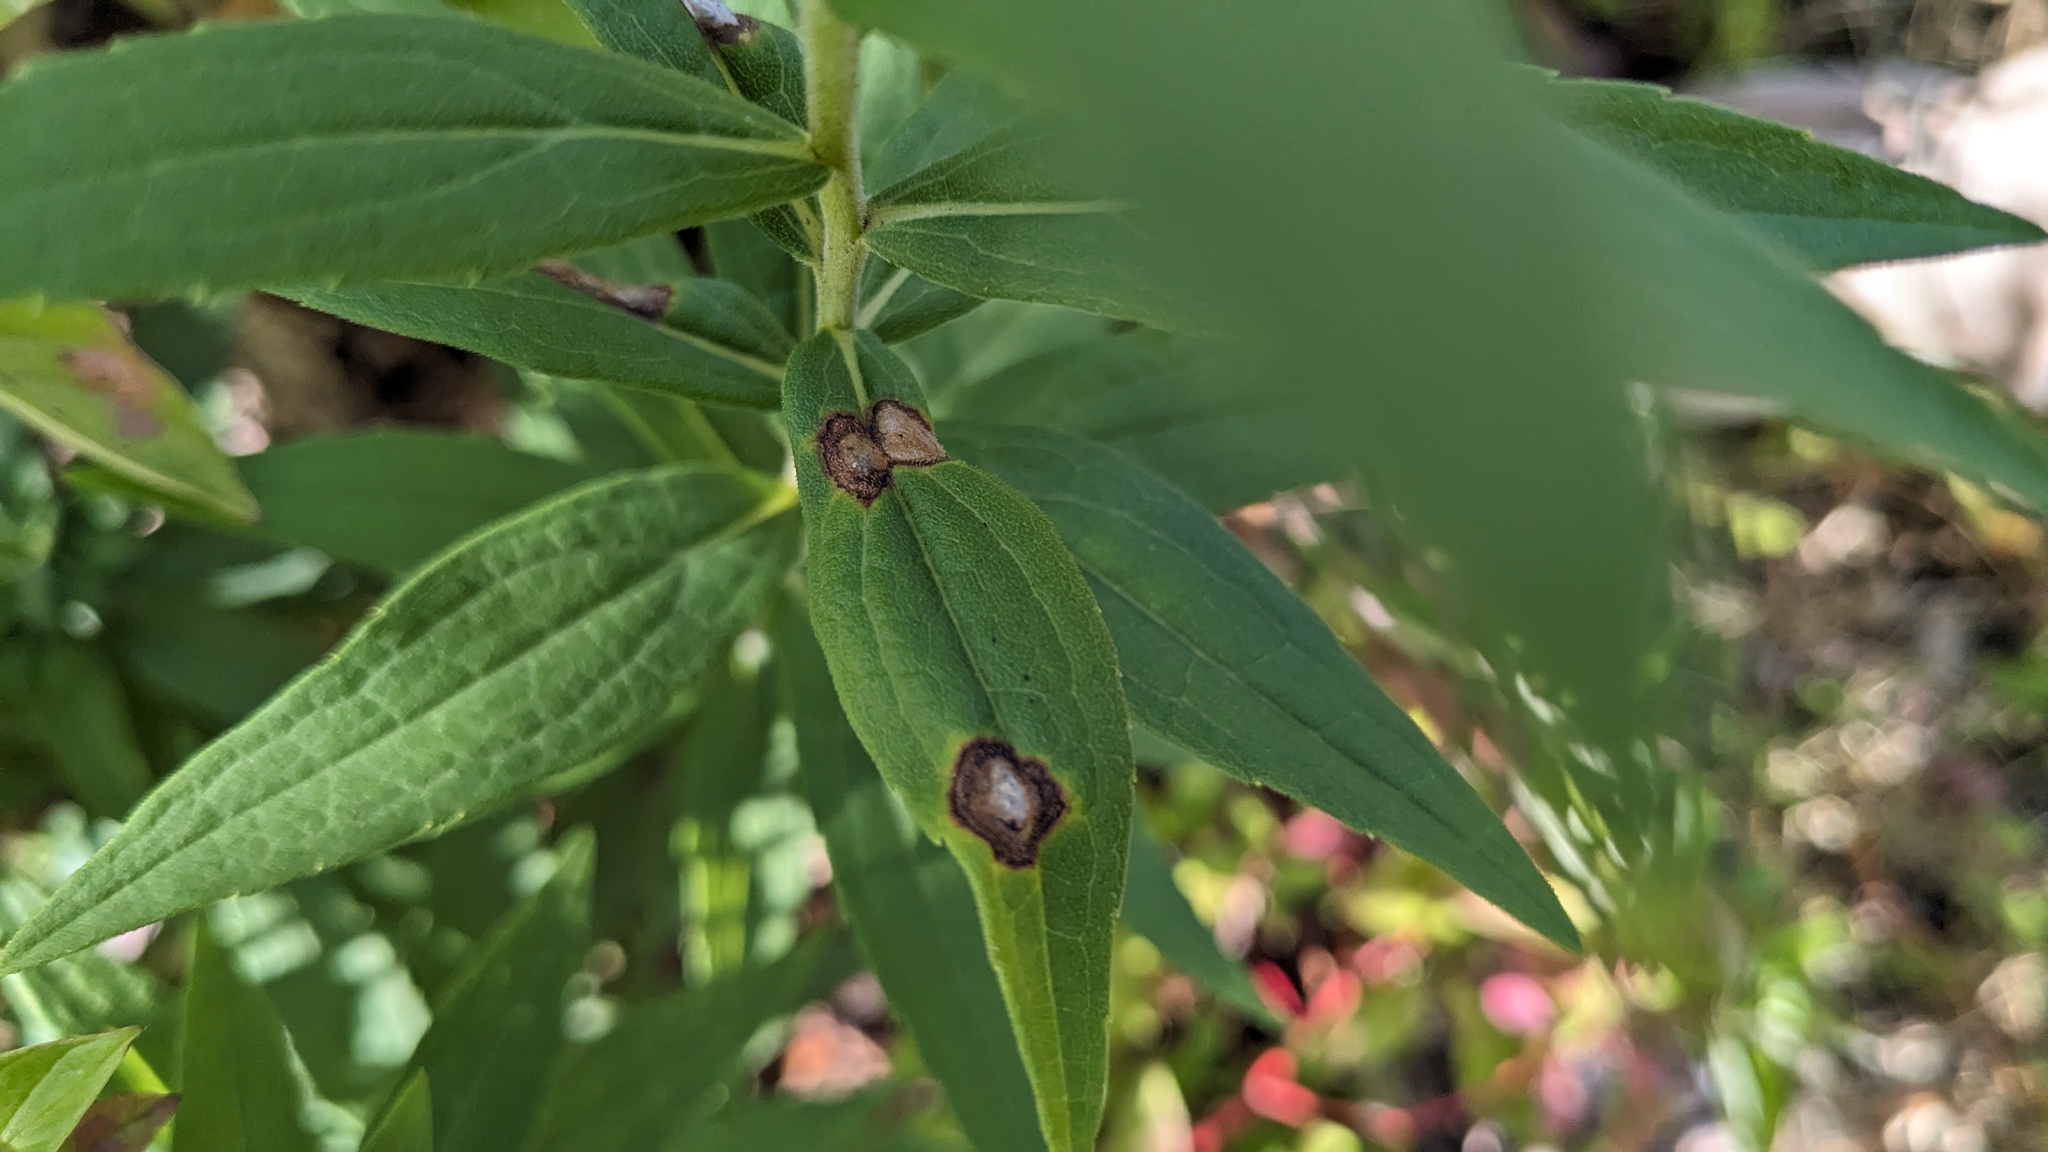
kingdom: Animalia
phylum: Arthropoda
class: Insecta
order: Diptera
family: Cecidomyiidae
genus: Asteromyia
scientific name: Asteromyia carbonifera
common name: Carbonifera goldenrod gall midge
